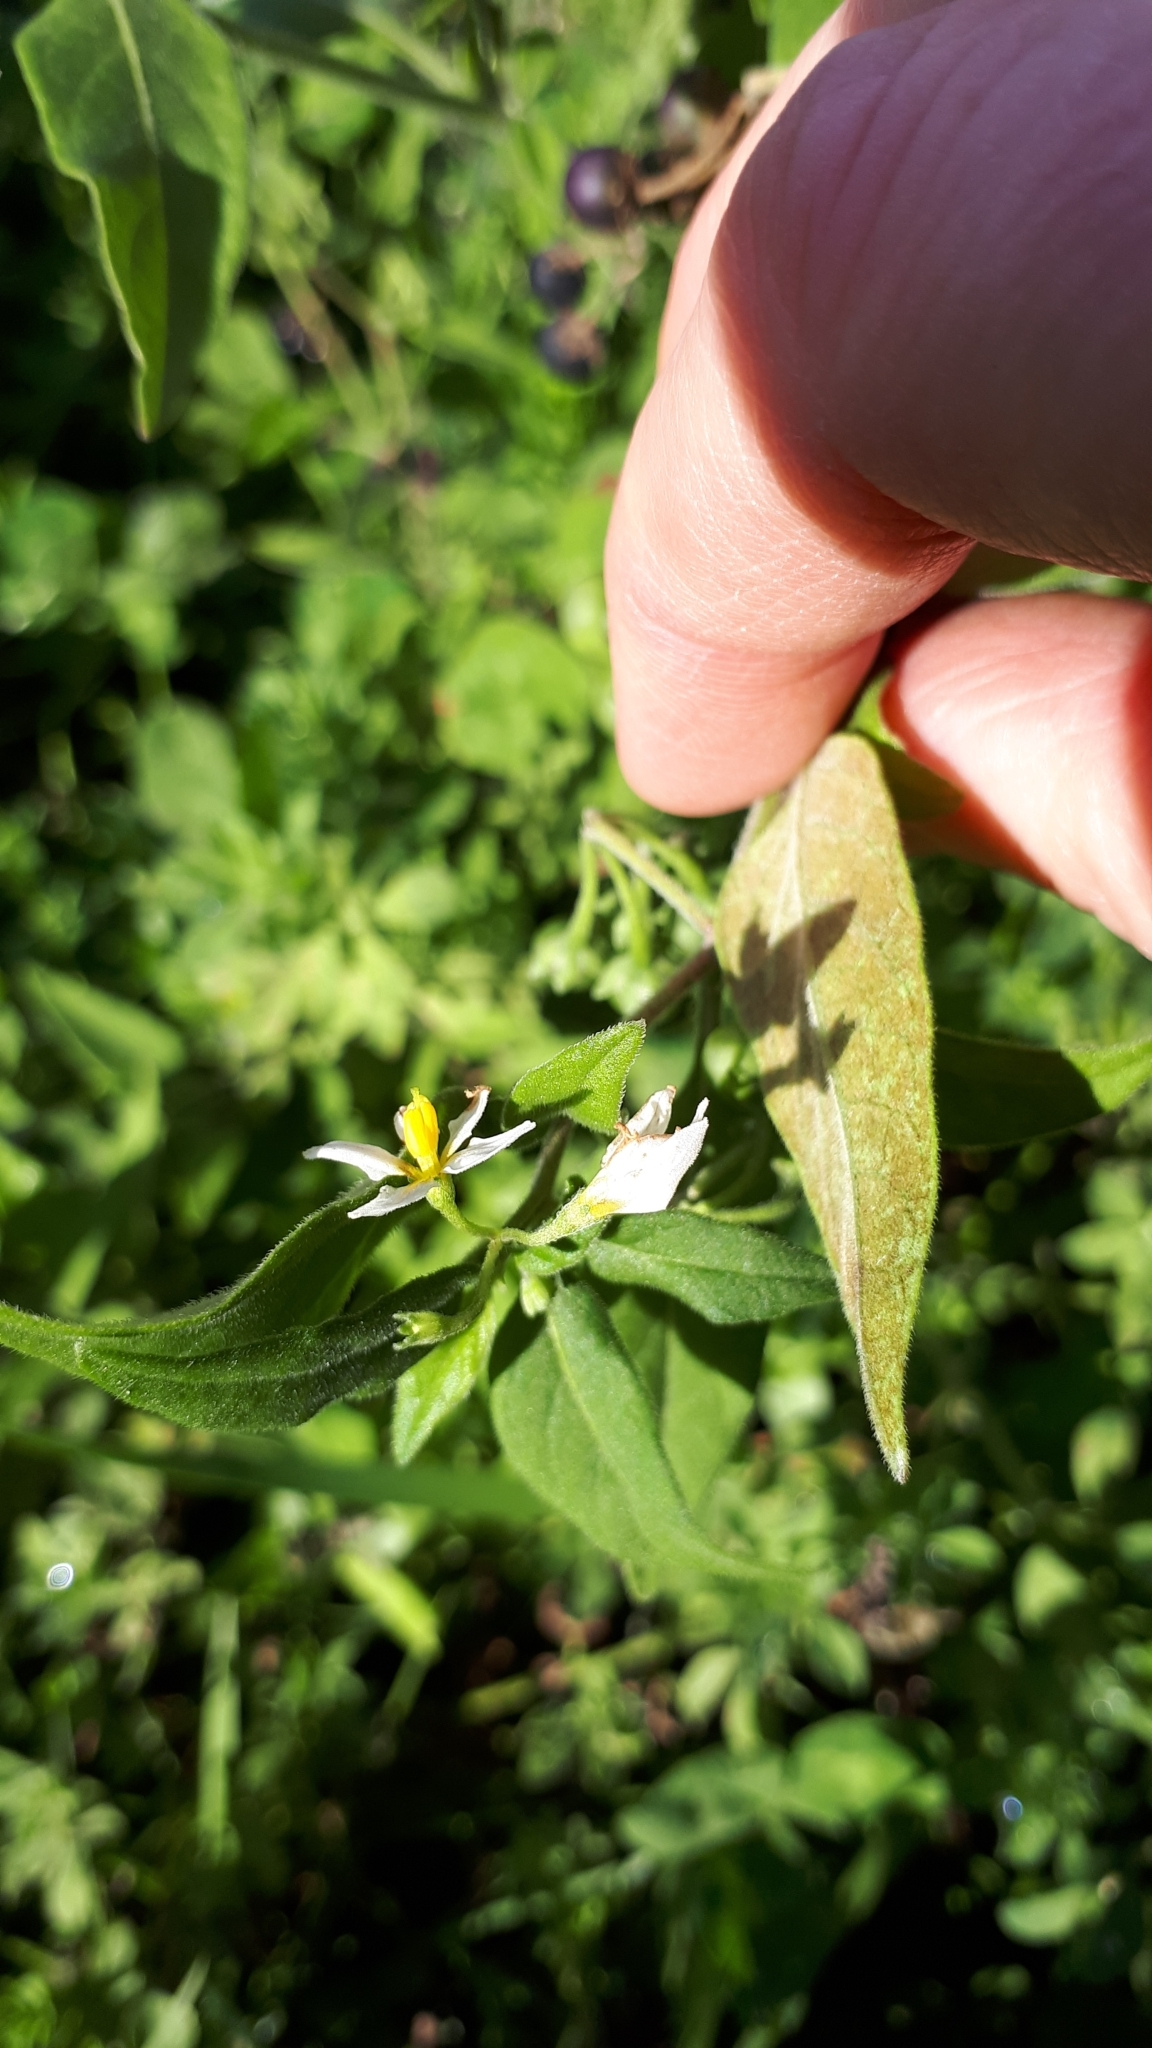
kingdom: Plantae
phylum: Tracheophyta
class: Magnoliopsida
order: Solanales
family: Solanaceae
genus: Solanum
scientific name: Solanum chenopodioides
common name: Tall nightshade
